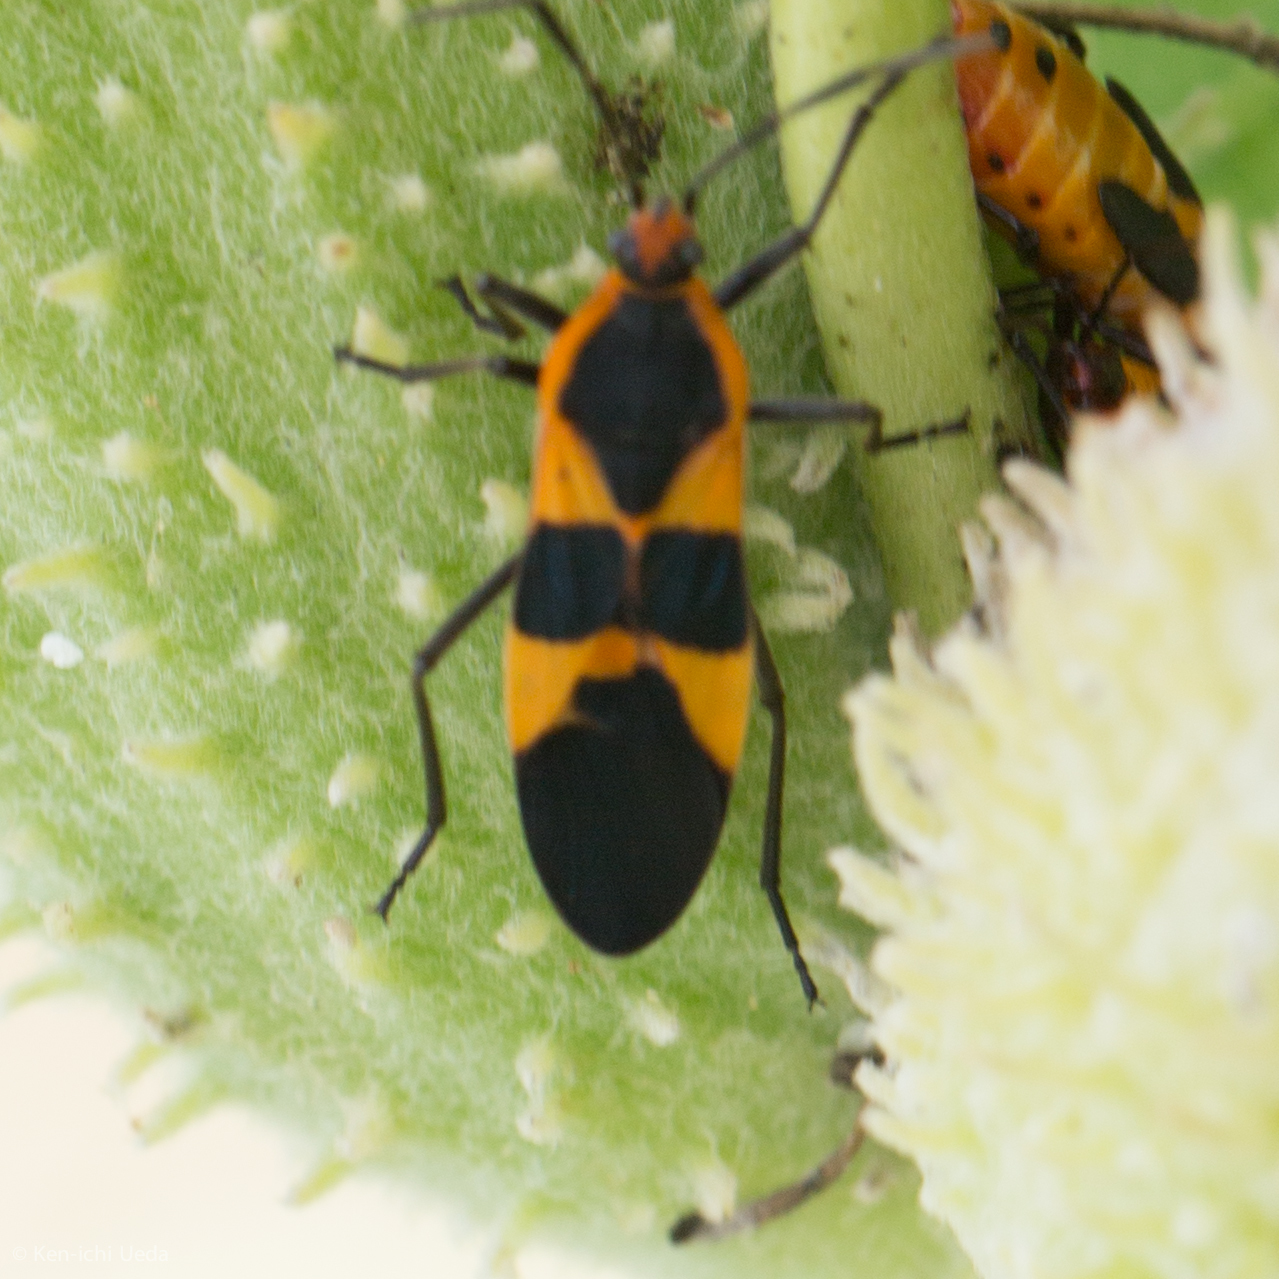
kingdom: Animalia
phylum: Arthropoda
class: Insecta
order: Hemiptera
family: Lygaeidae
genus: Oncopeltus
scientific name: Oncopeltus fasciatus
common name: Large milkweed bug
